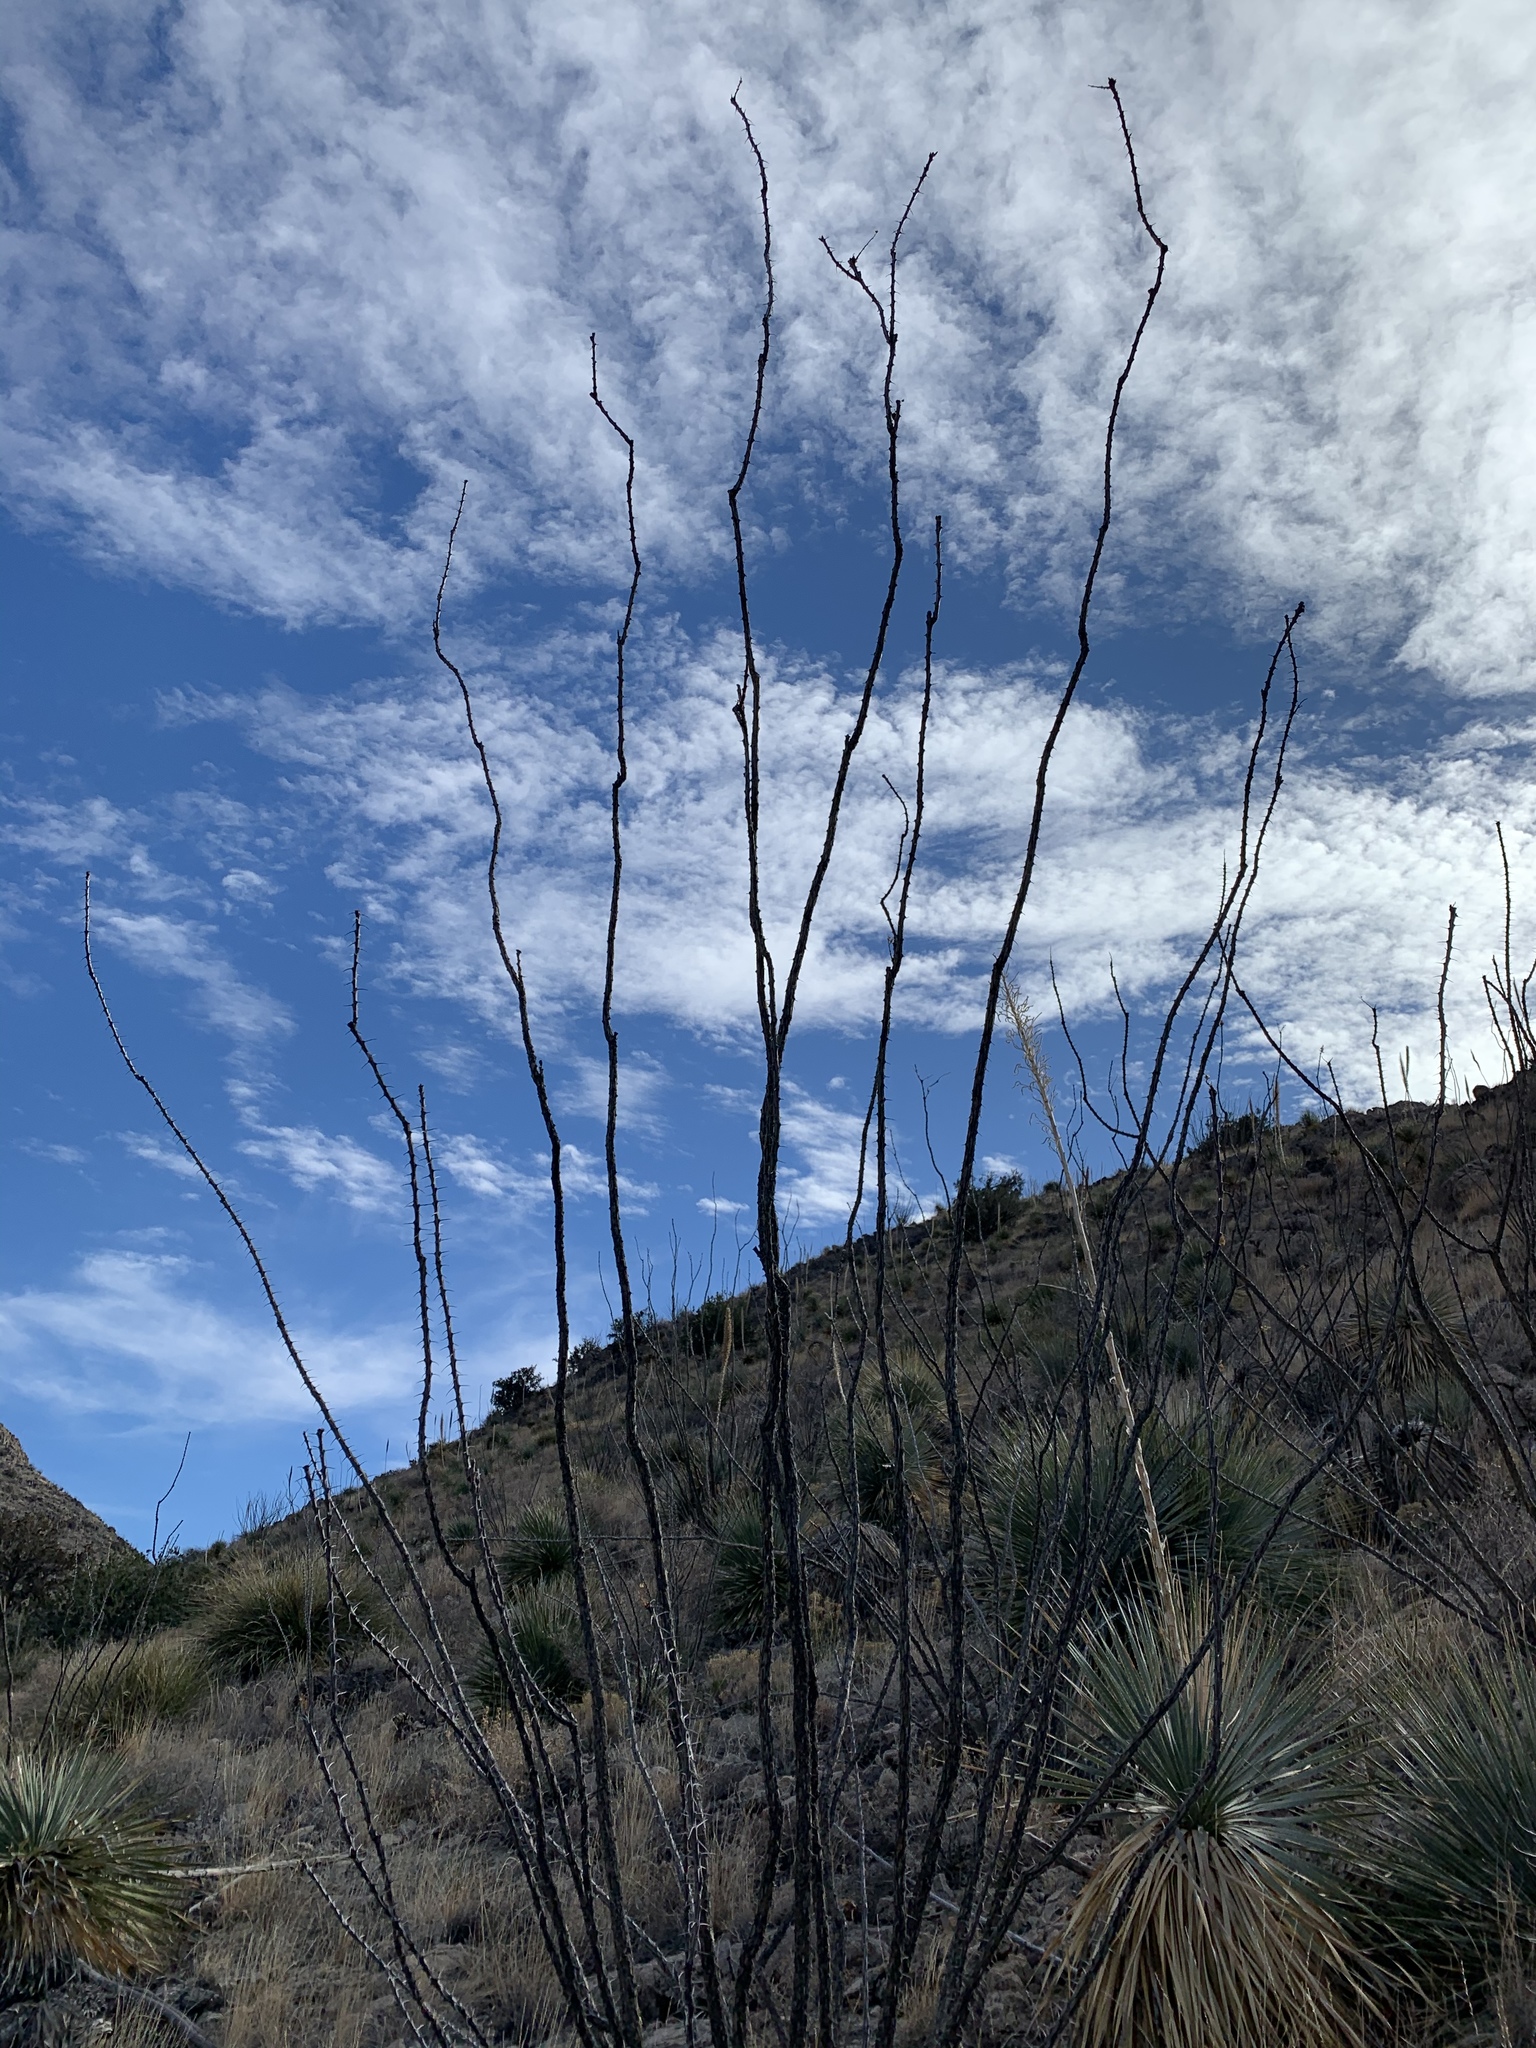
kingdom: Plantae
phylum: Tracheophyta
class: Magnoliopsida
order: Ericales
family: Fouquieriaceae
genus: Fouquieria
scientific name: Fouquieria splendens
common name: Vine-cactus
